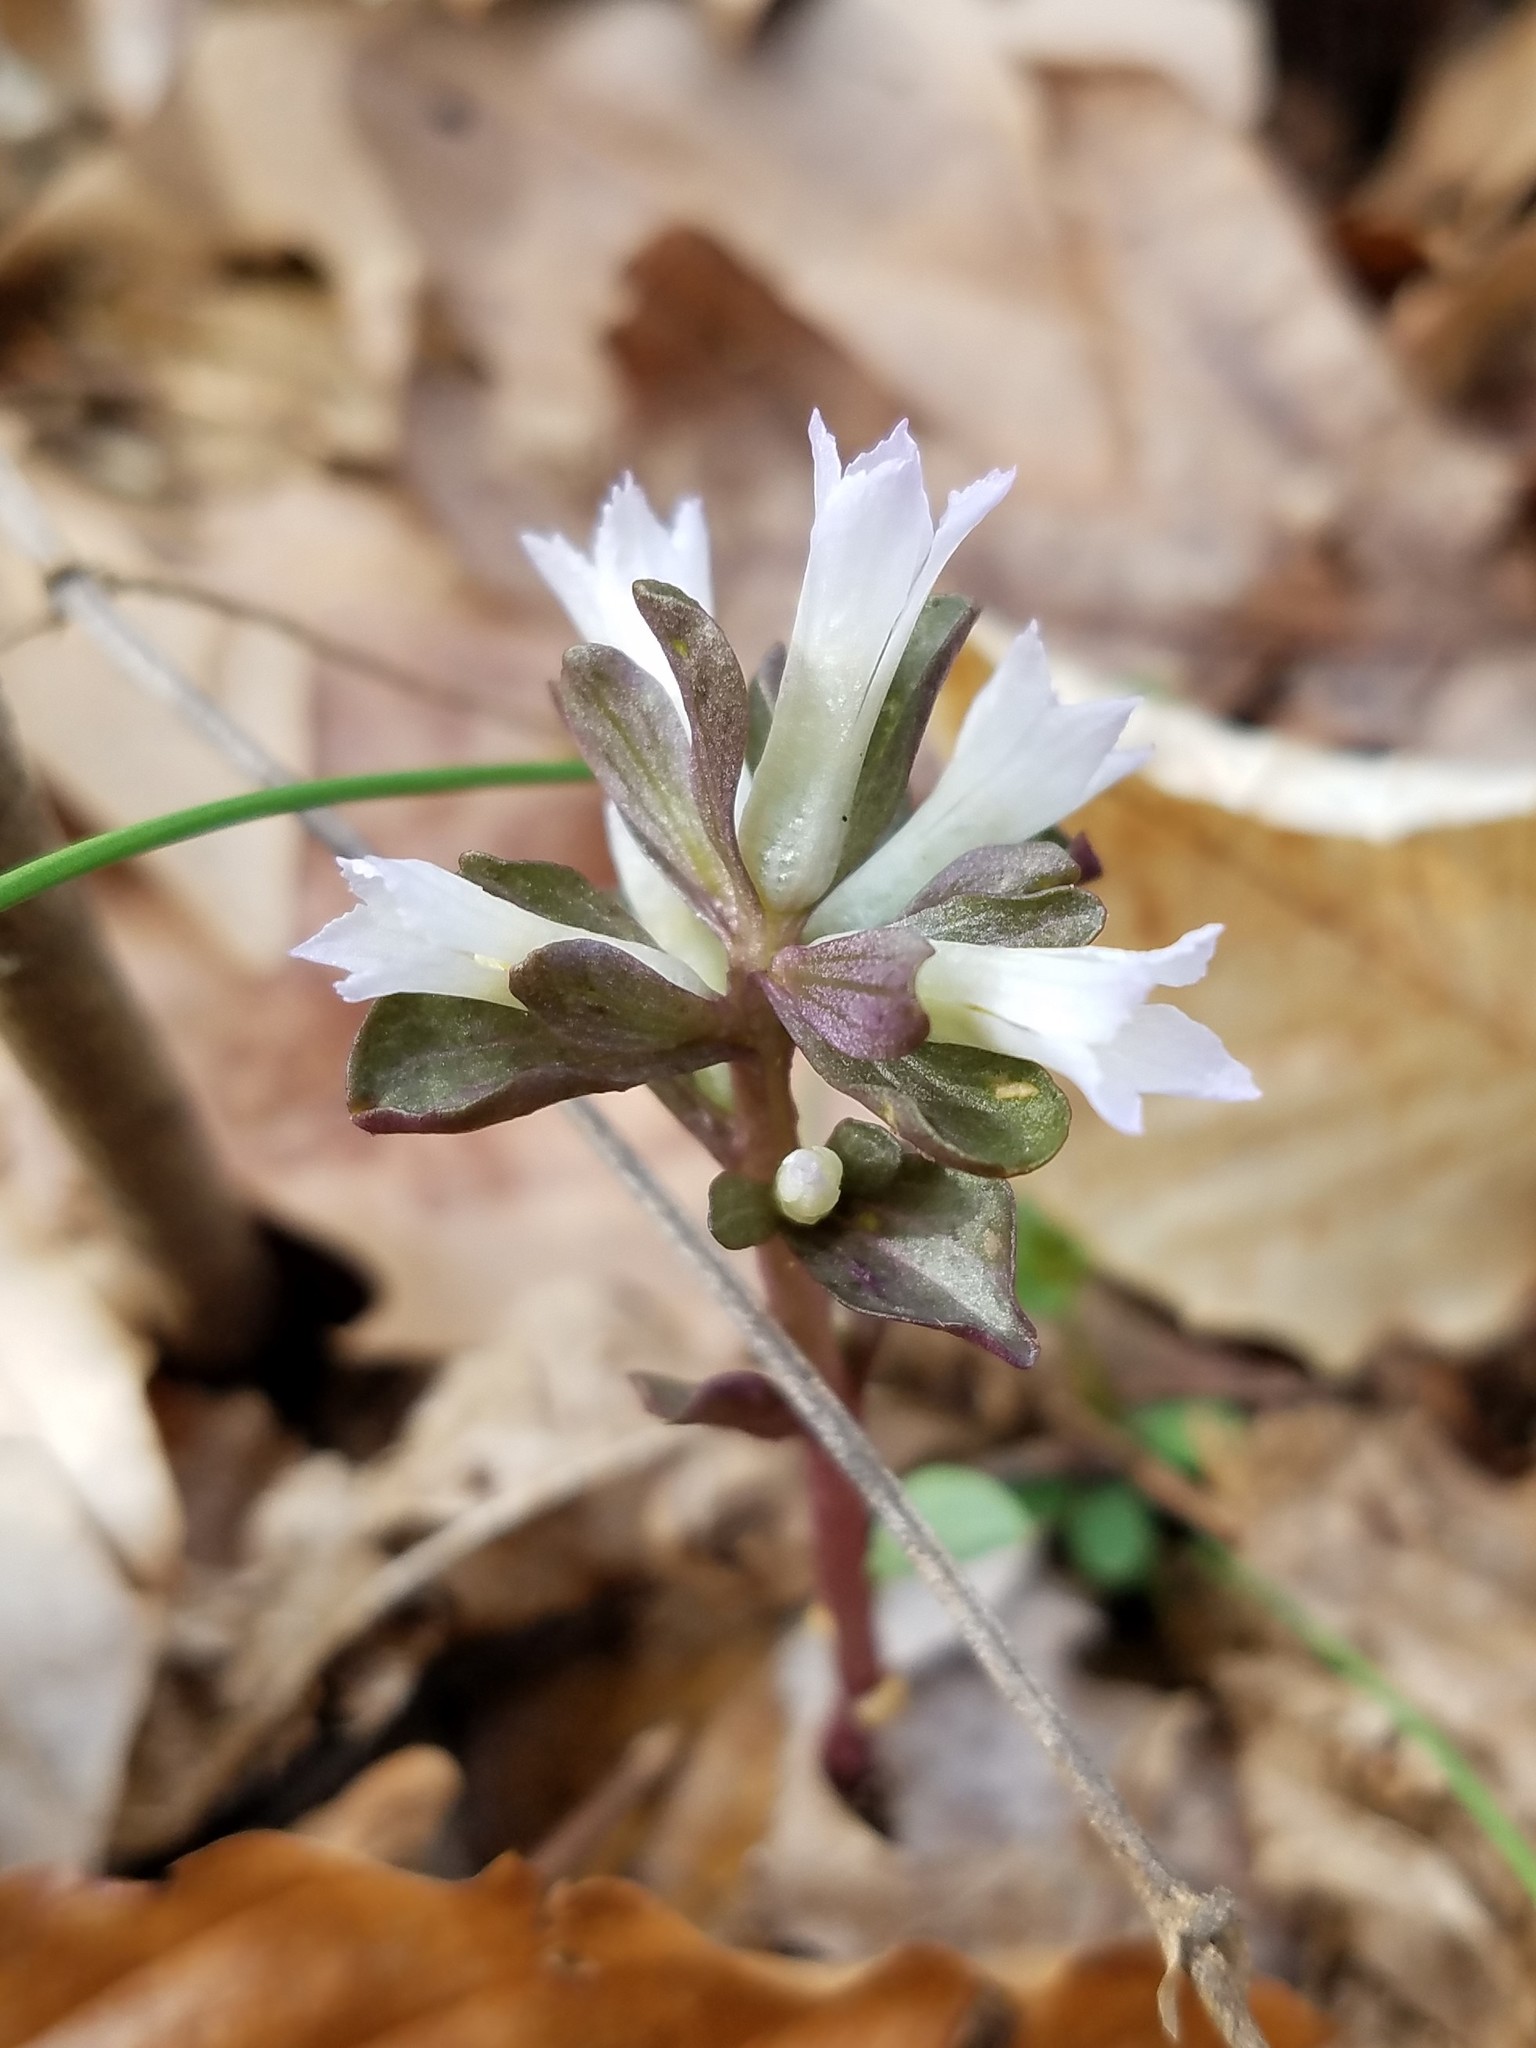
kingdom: Plantae
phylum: Tracheophyta
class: Magnoliopsida
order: Gentianales
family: Gentianaceae
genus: Obolaria
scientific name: Obolaria virginica
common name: Pennywort
